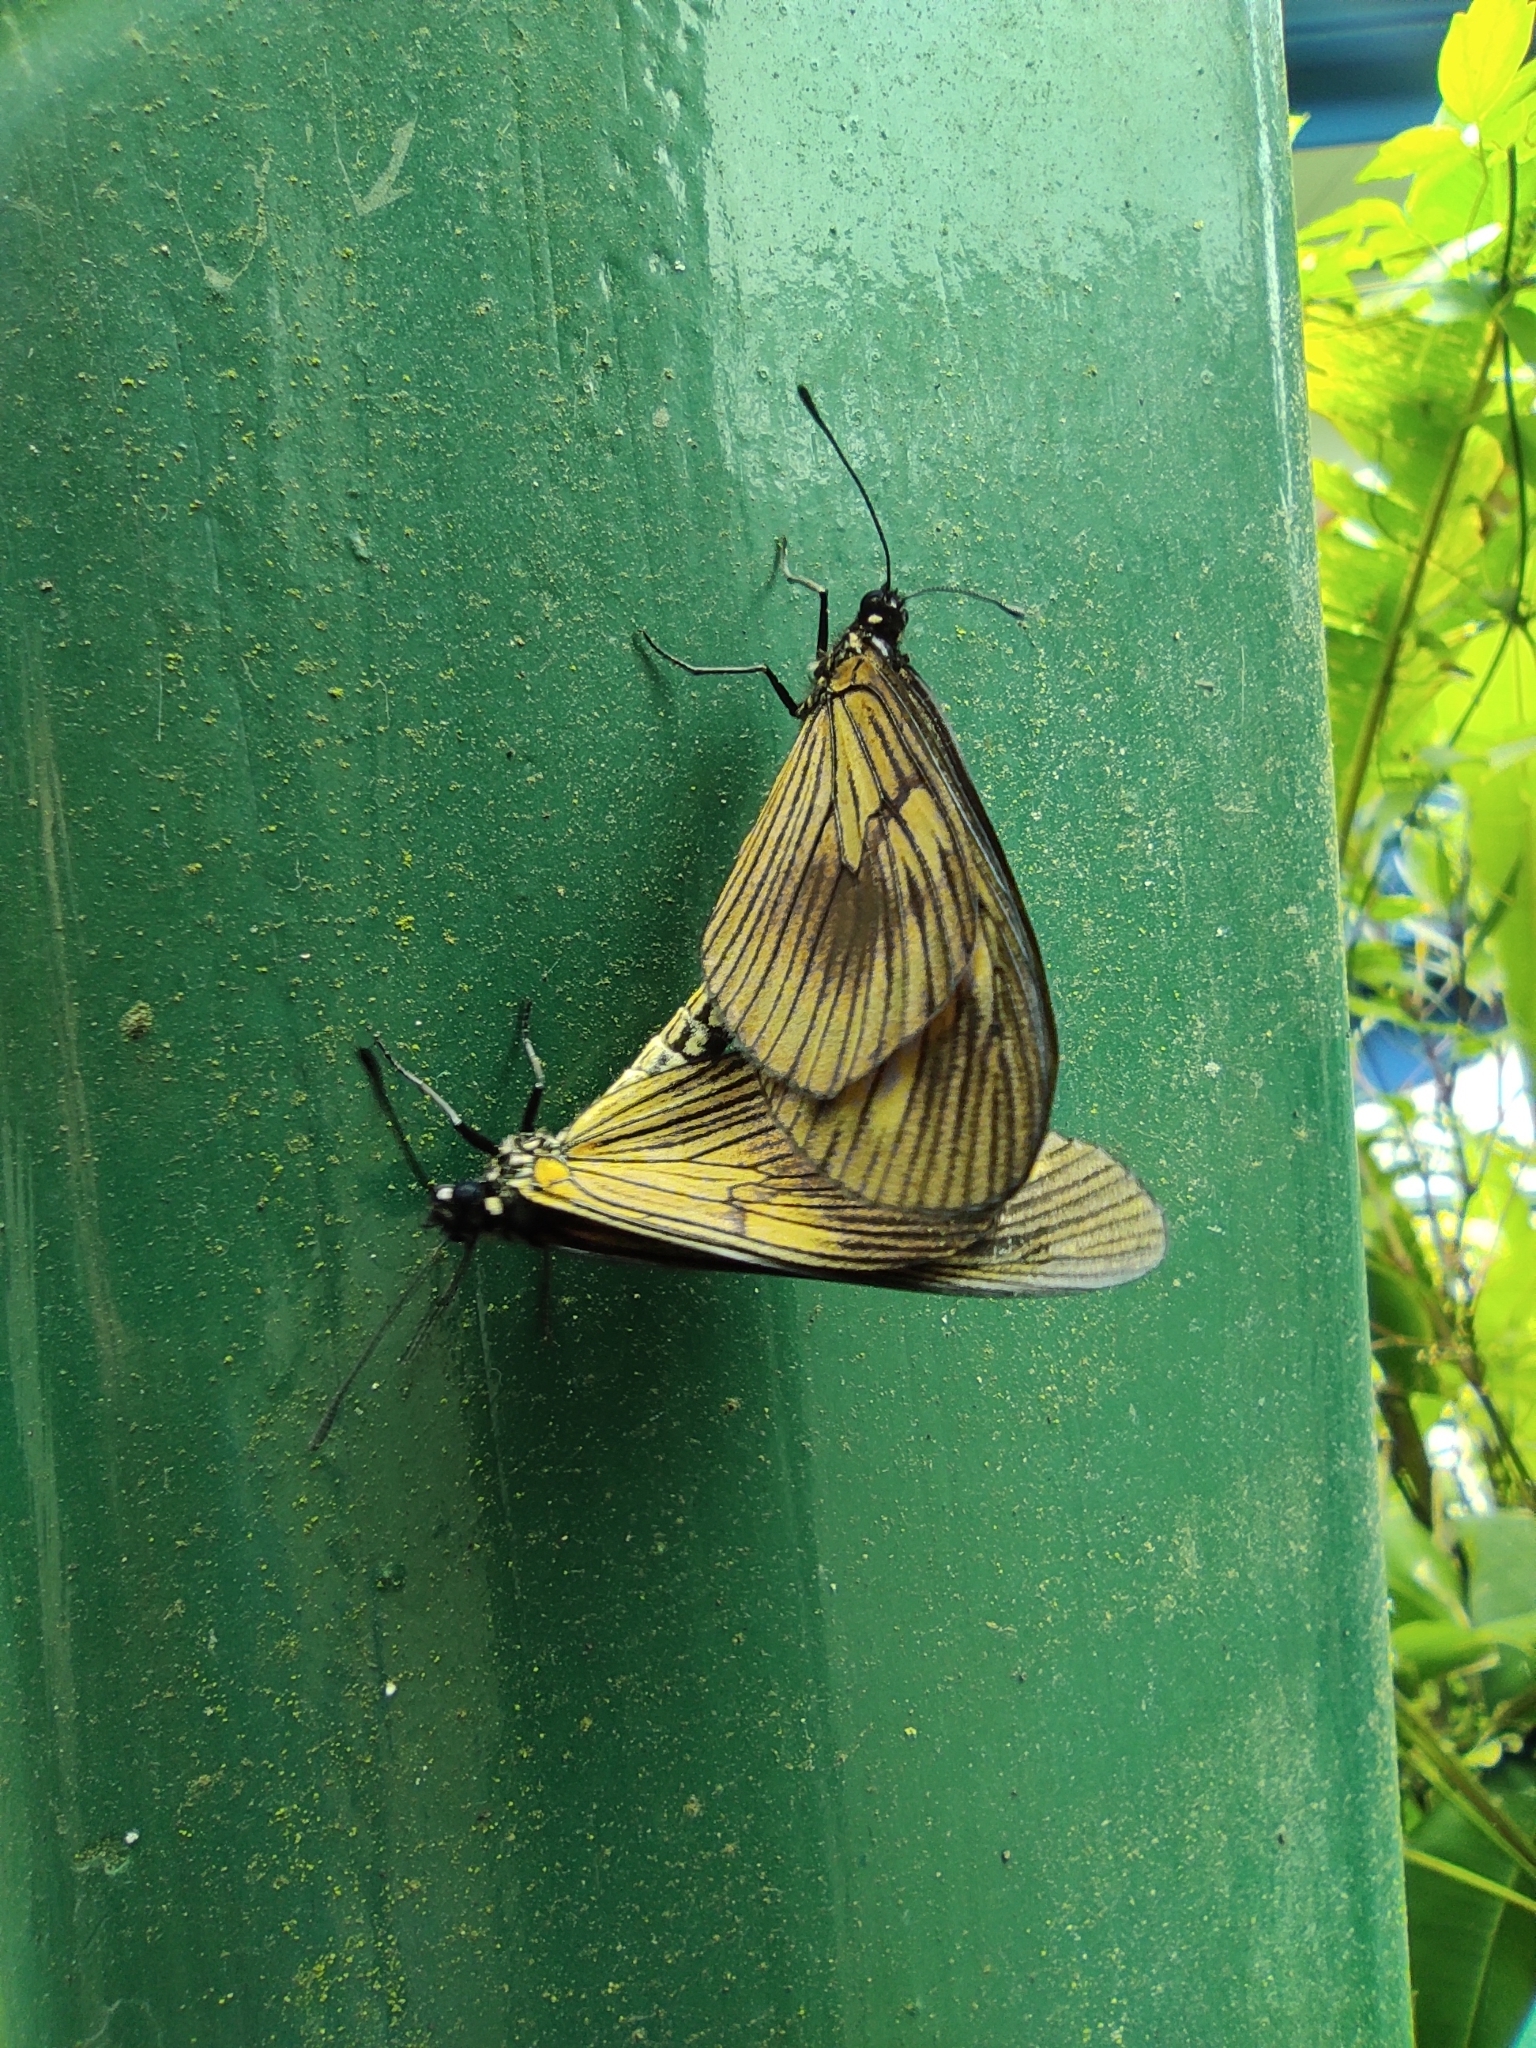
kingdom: Animalia
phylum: Arthropoda
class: Insecta
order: Lepidoptera
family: Nymphalidae
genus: Actinote
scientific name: Actinote anteas
